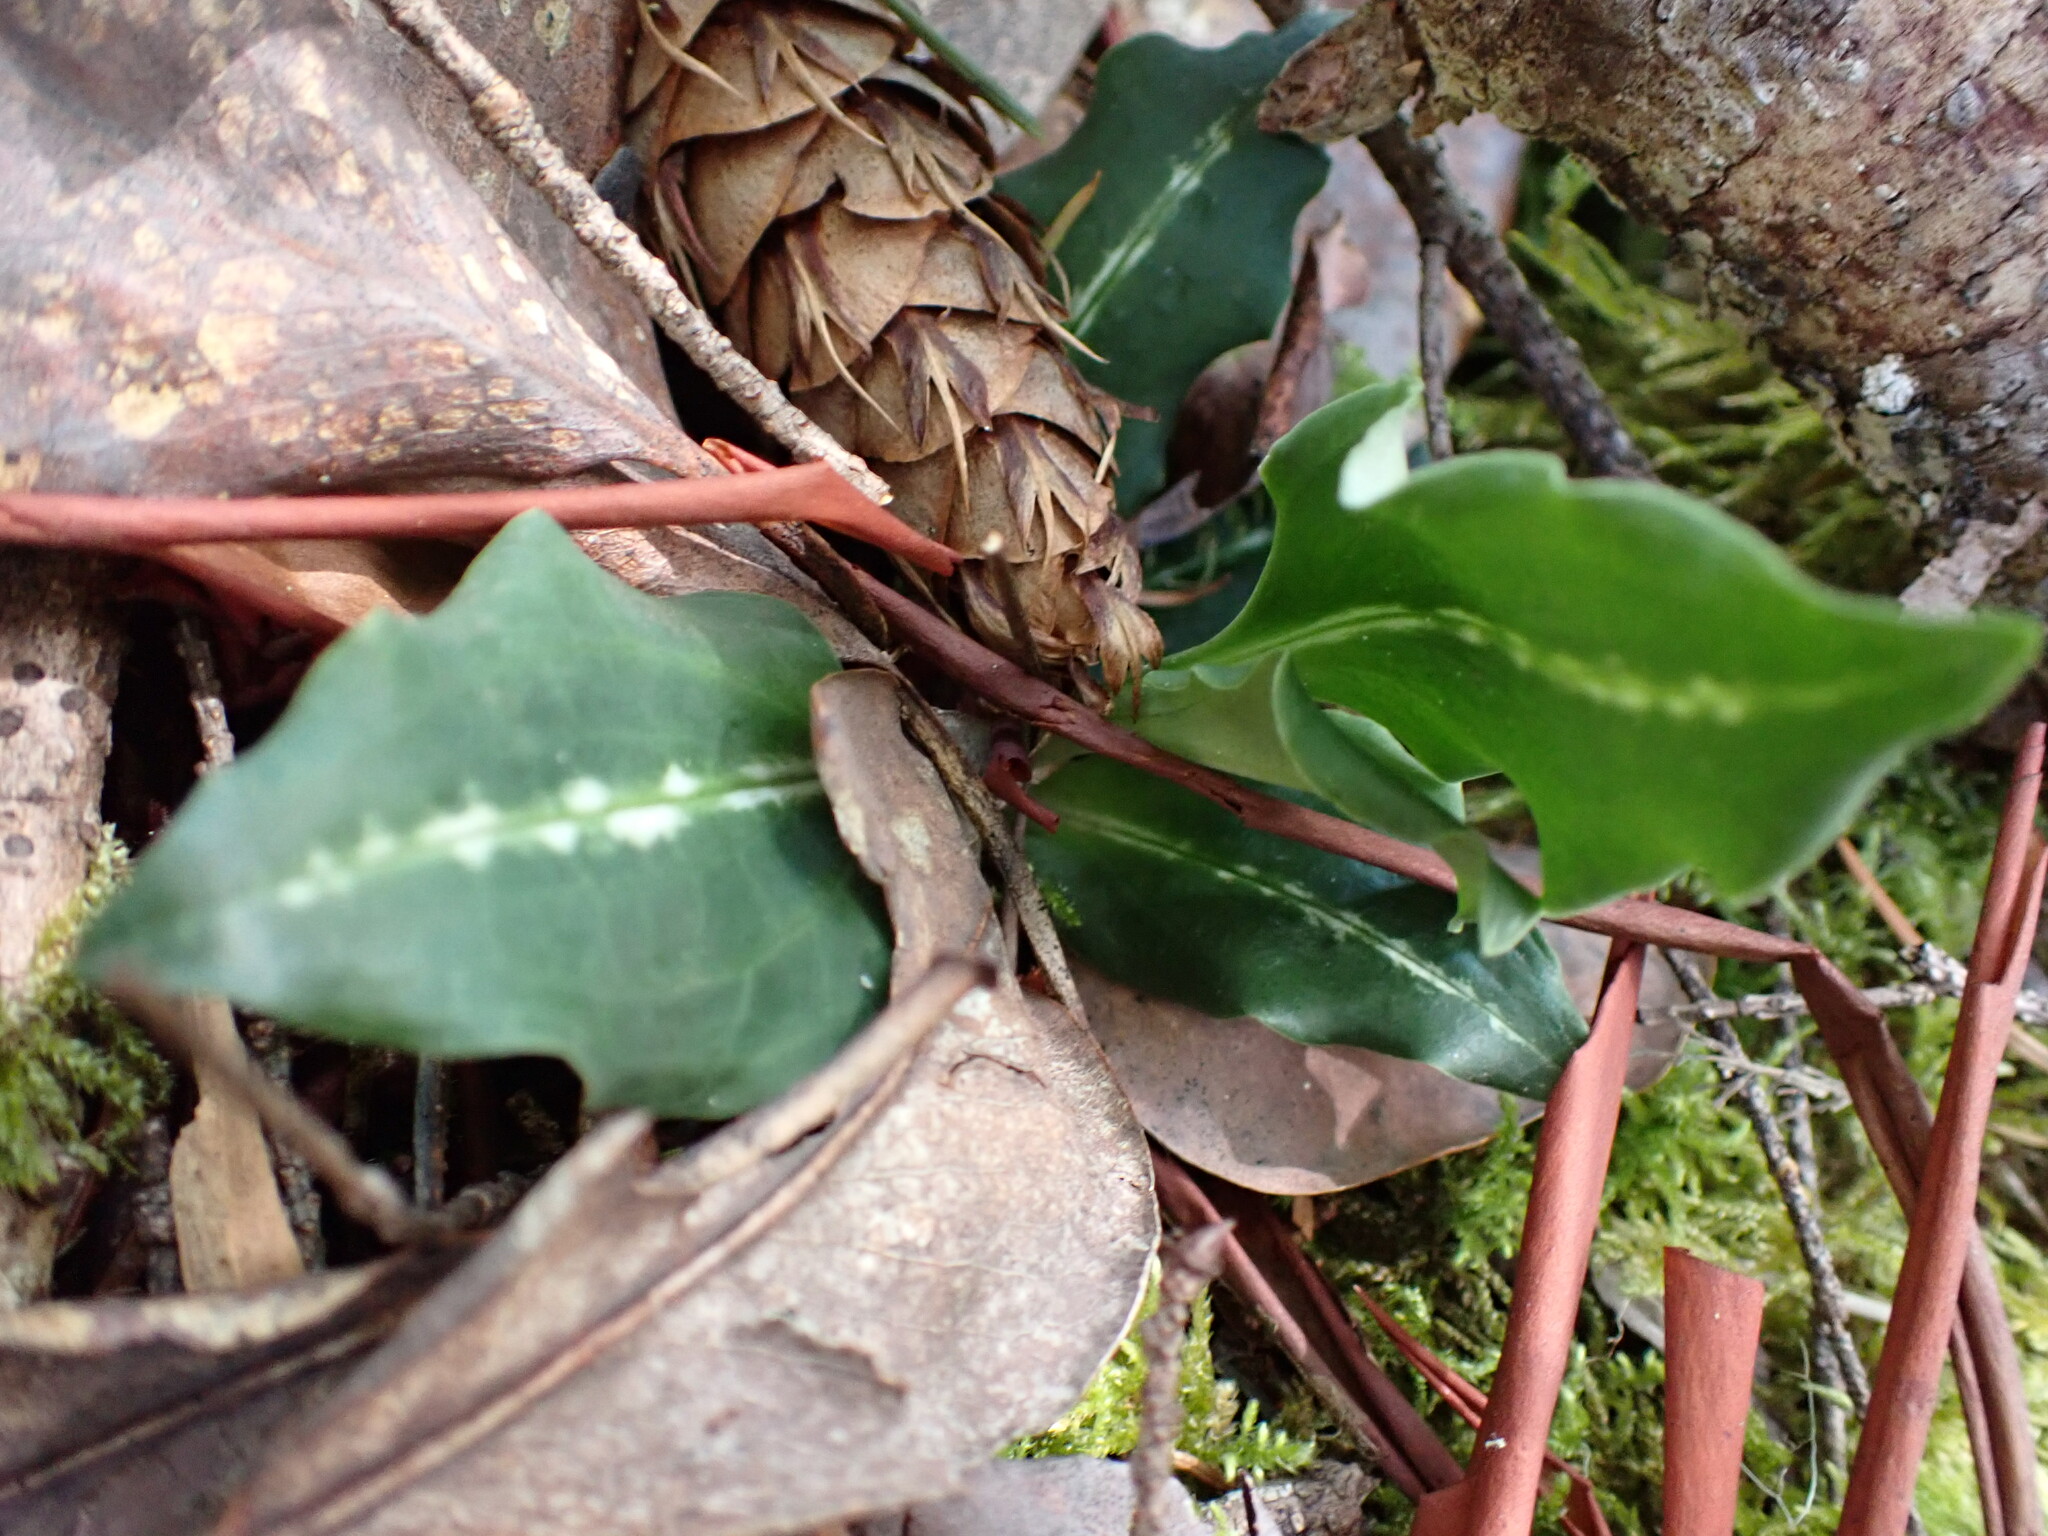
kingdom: Plantae
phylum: Tracheophyta
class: Liliopsida
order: Asparagales
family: Orchidaceae
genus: Goodyera
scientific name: Goodyera oblongifolia
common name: Giant rattlesnake-plantain
